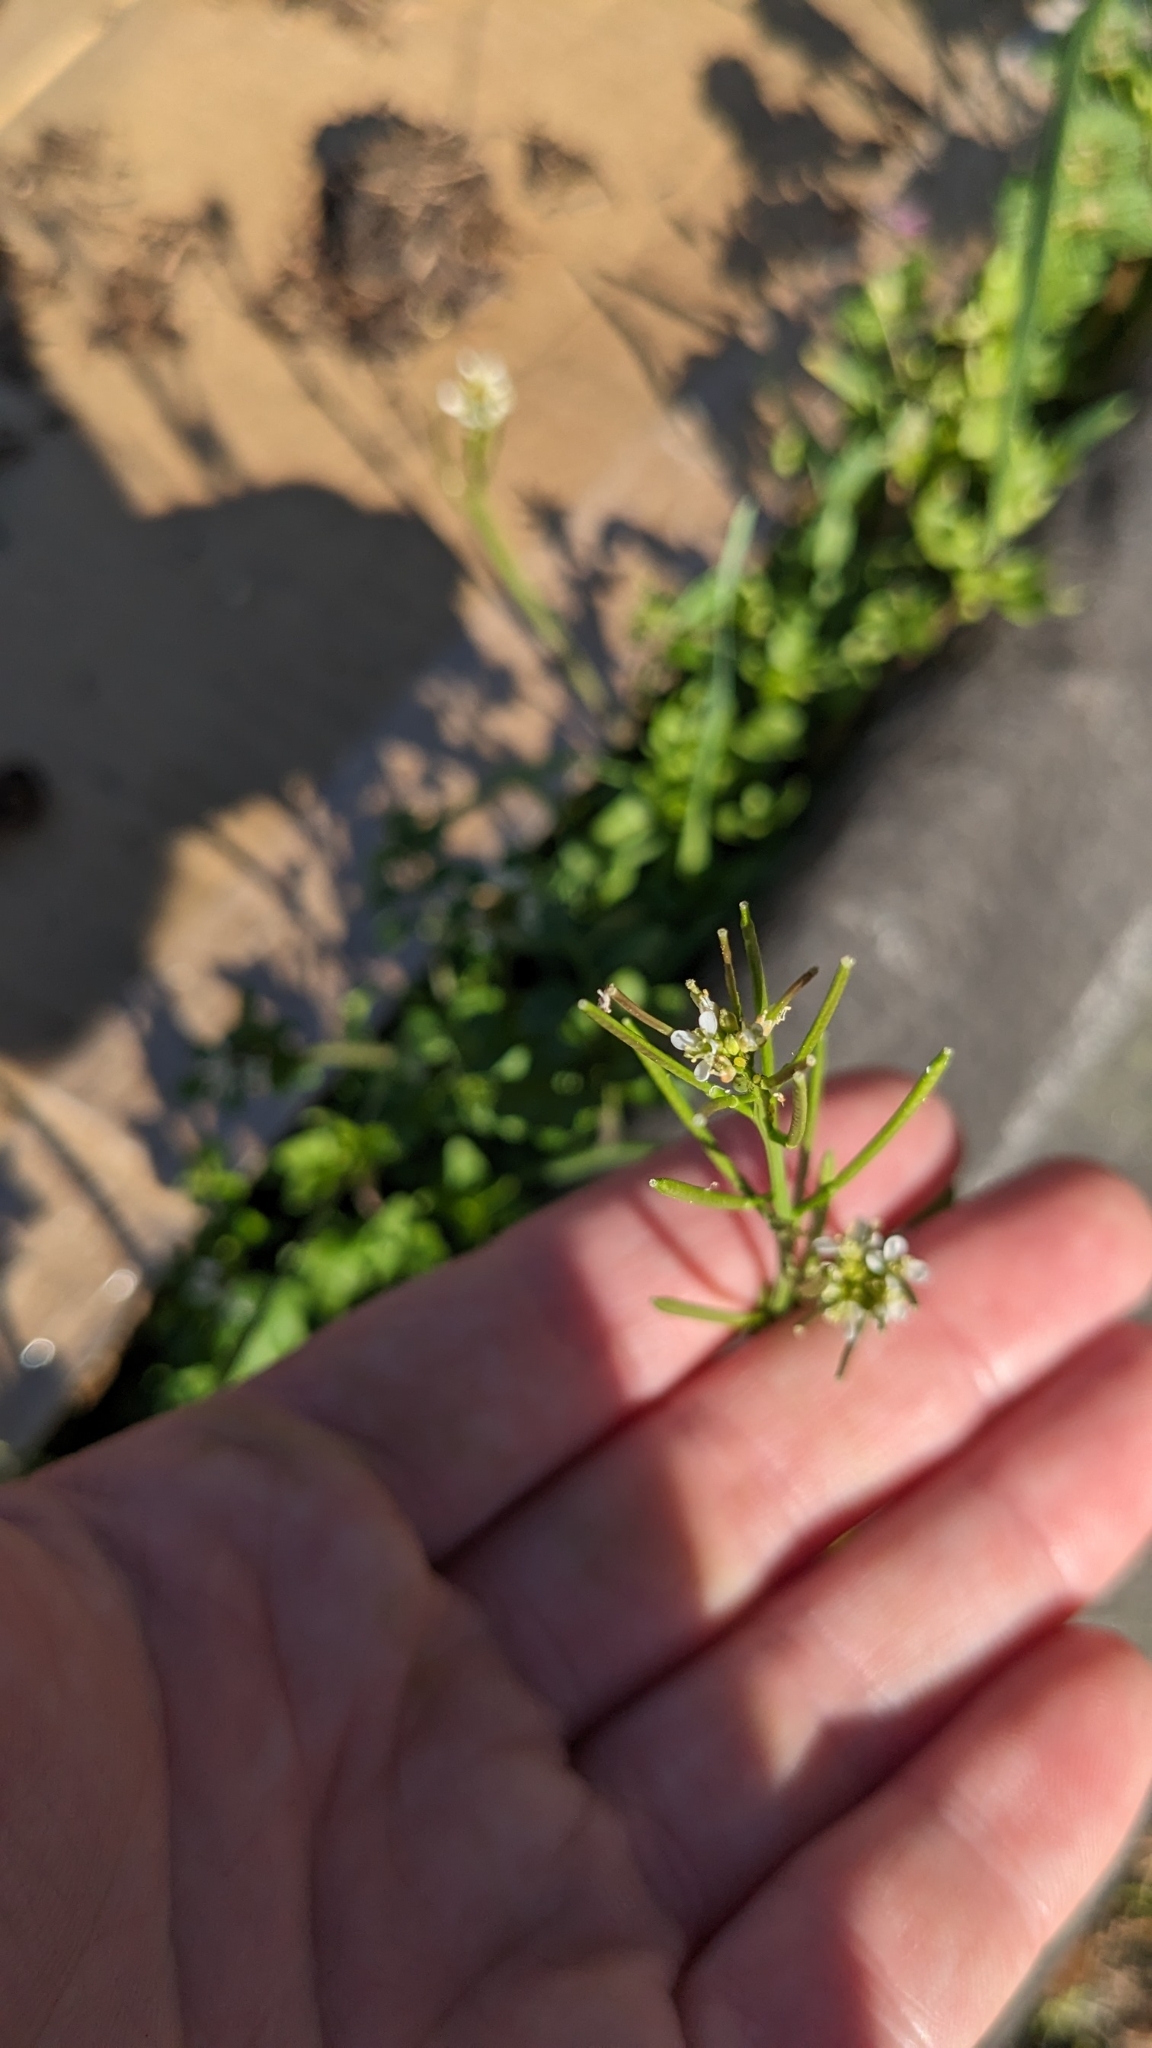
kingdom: Plantae
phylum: Tracheophyta
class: Magnoliopsida
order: Brassicales
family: Brassicaceae
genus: Cardamine
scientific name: Cardamine hirsuta
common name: Hairy bittercress
